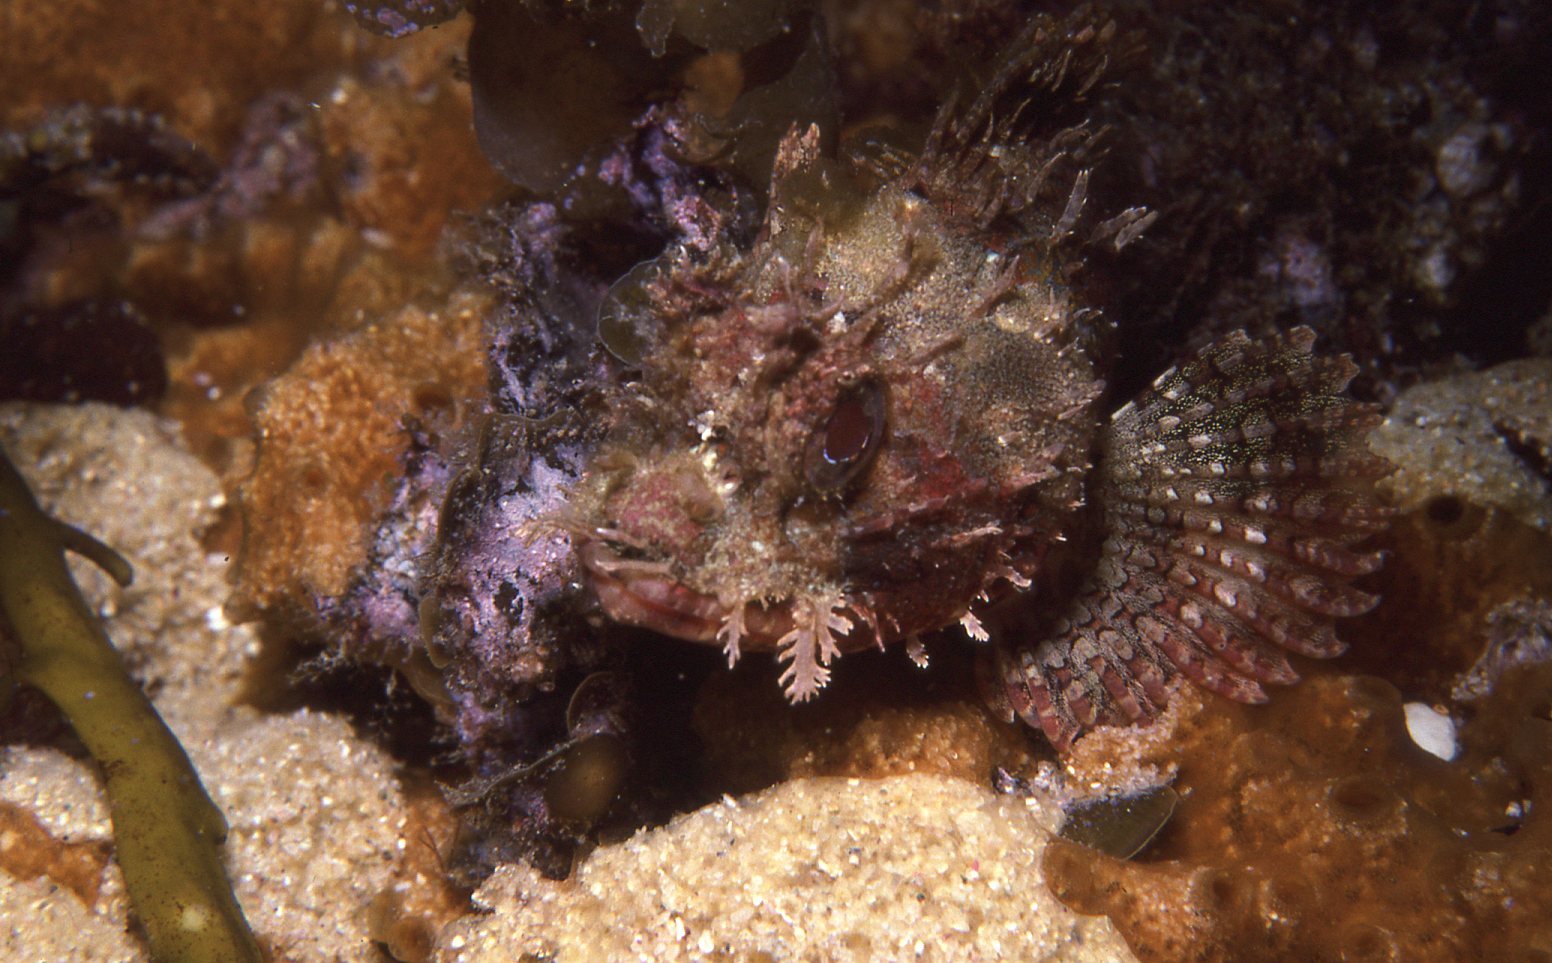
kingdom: Animalia
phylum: Chordata
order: Scorpaeniformes
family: Scorpaenidae
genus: Scorpaena
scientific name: Scorpaena jacksoniensis
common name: Eastern red scorpionfish
